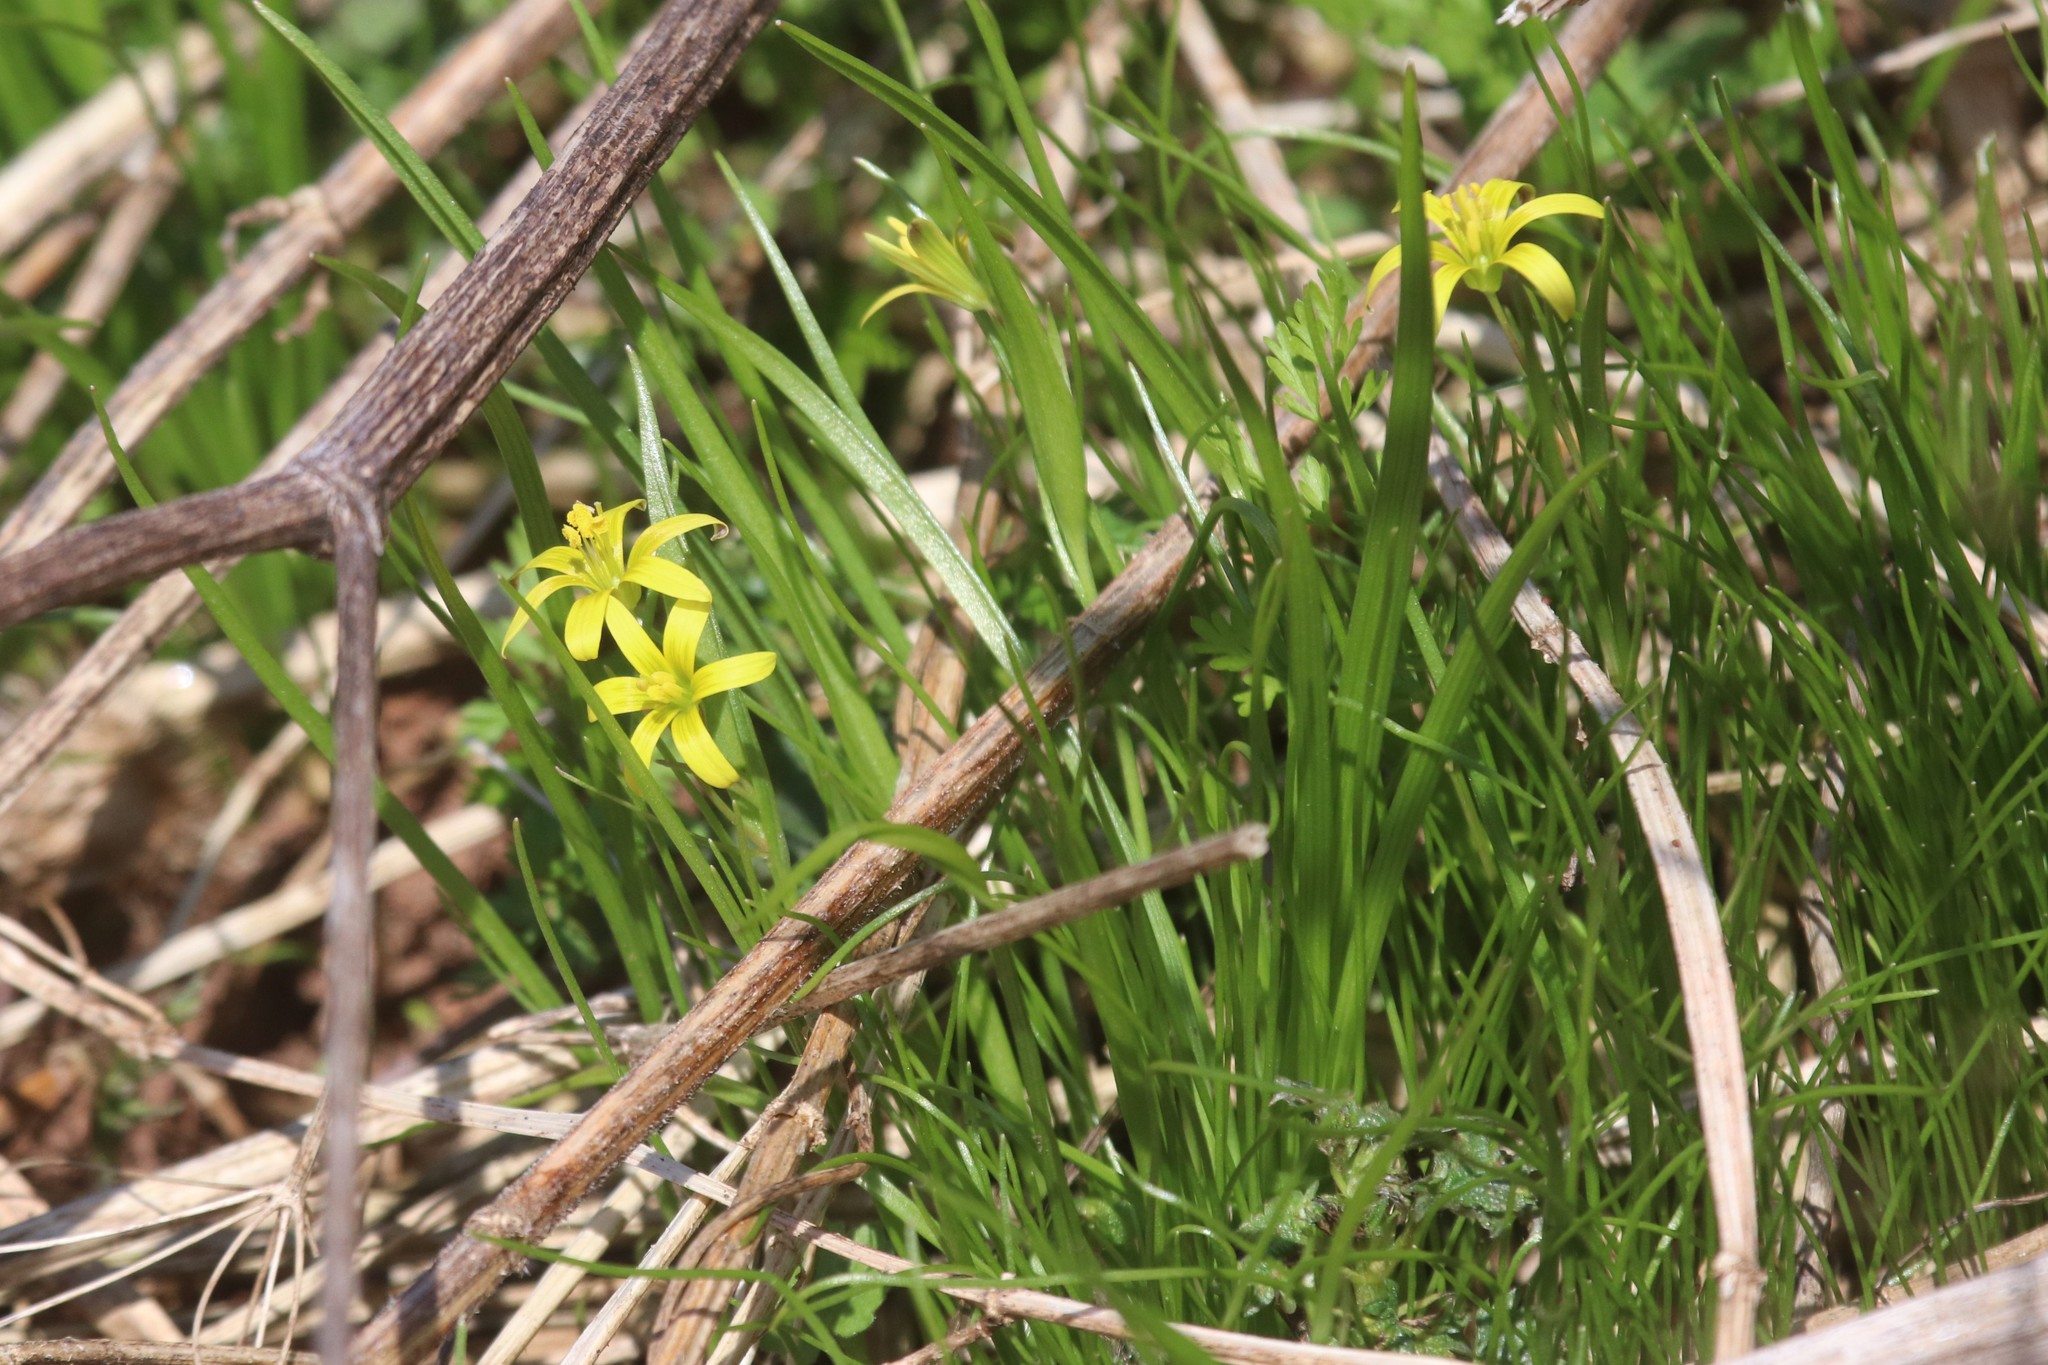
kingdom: Plantae
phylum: Tracheophyta
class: Liliopsida
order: Liliales
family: Liliaceae
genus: Gagea
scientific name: Gagea minima
